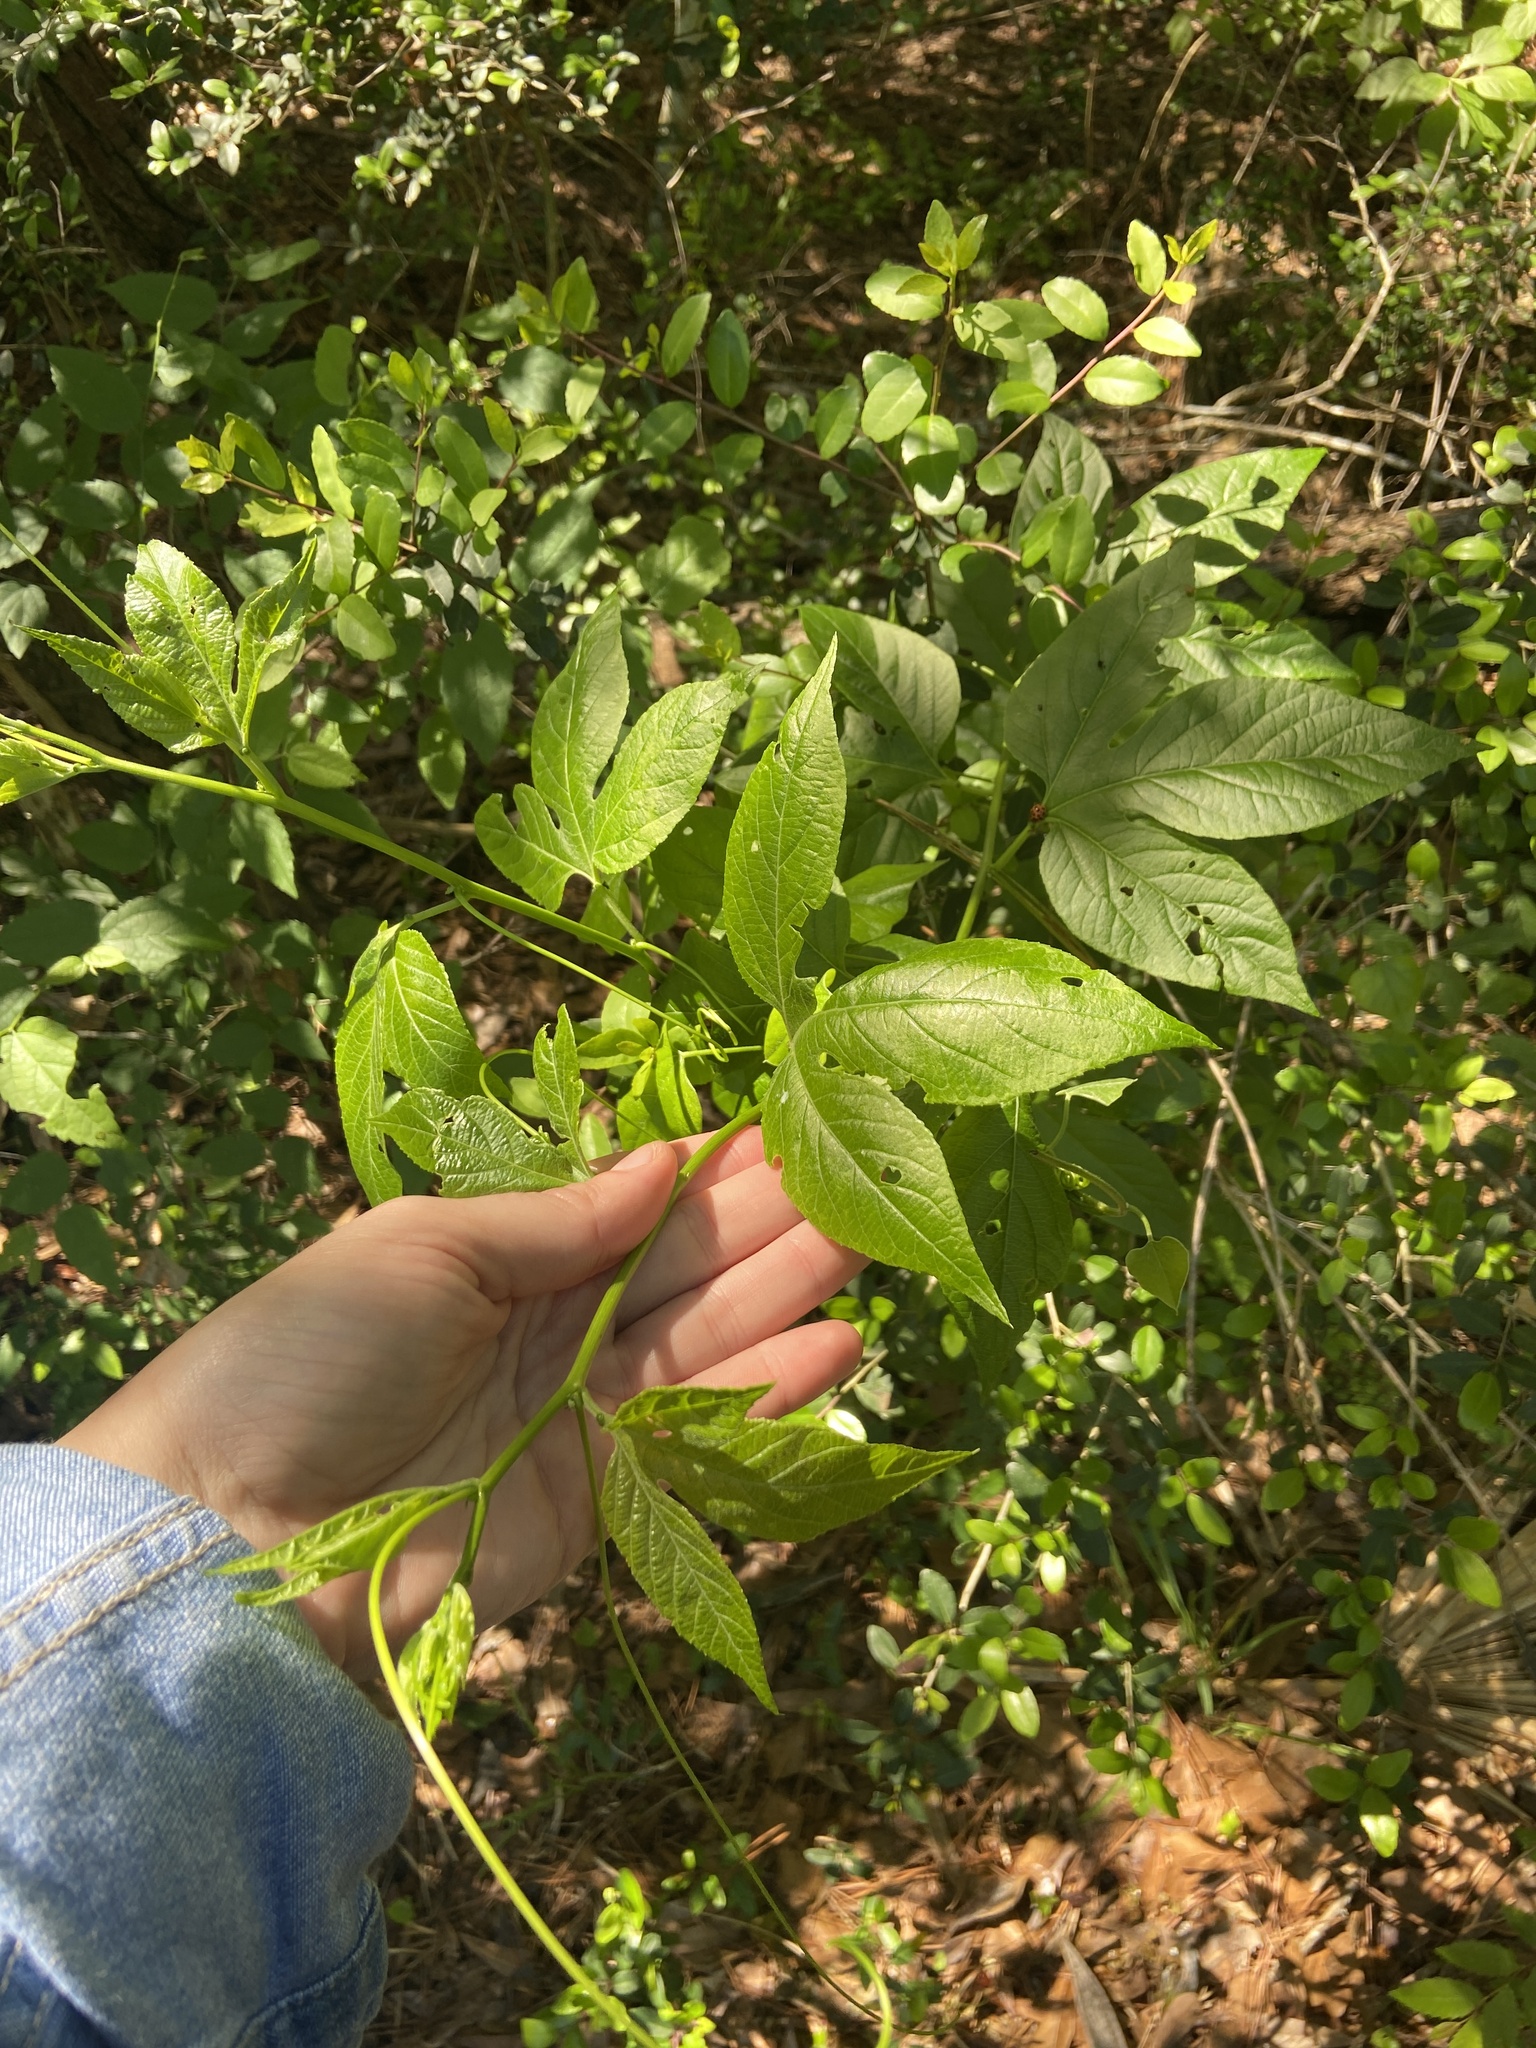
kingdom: Plantae
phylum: Tracheophyta
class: Magnoliopsida
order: Malpighiales
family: Passifloraceae
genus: Passiflora
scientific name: Passiflora incarnata
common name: Apricot-vine
